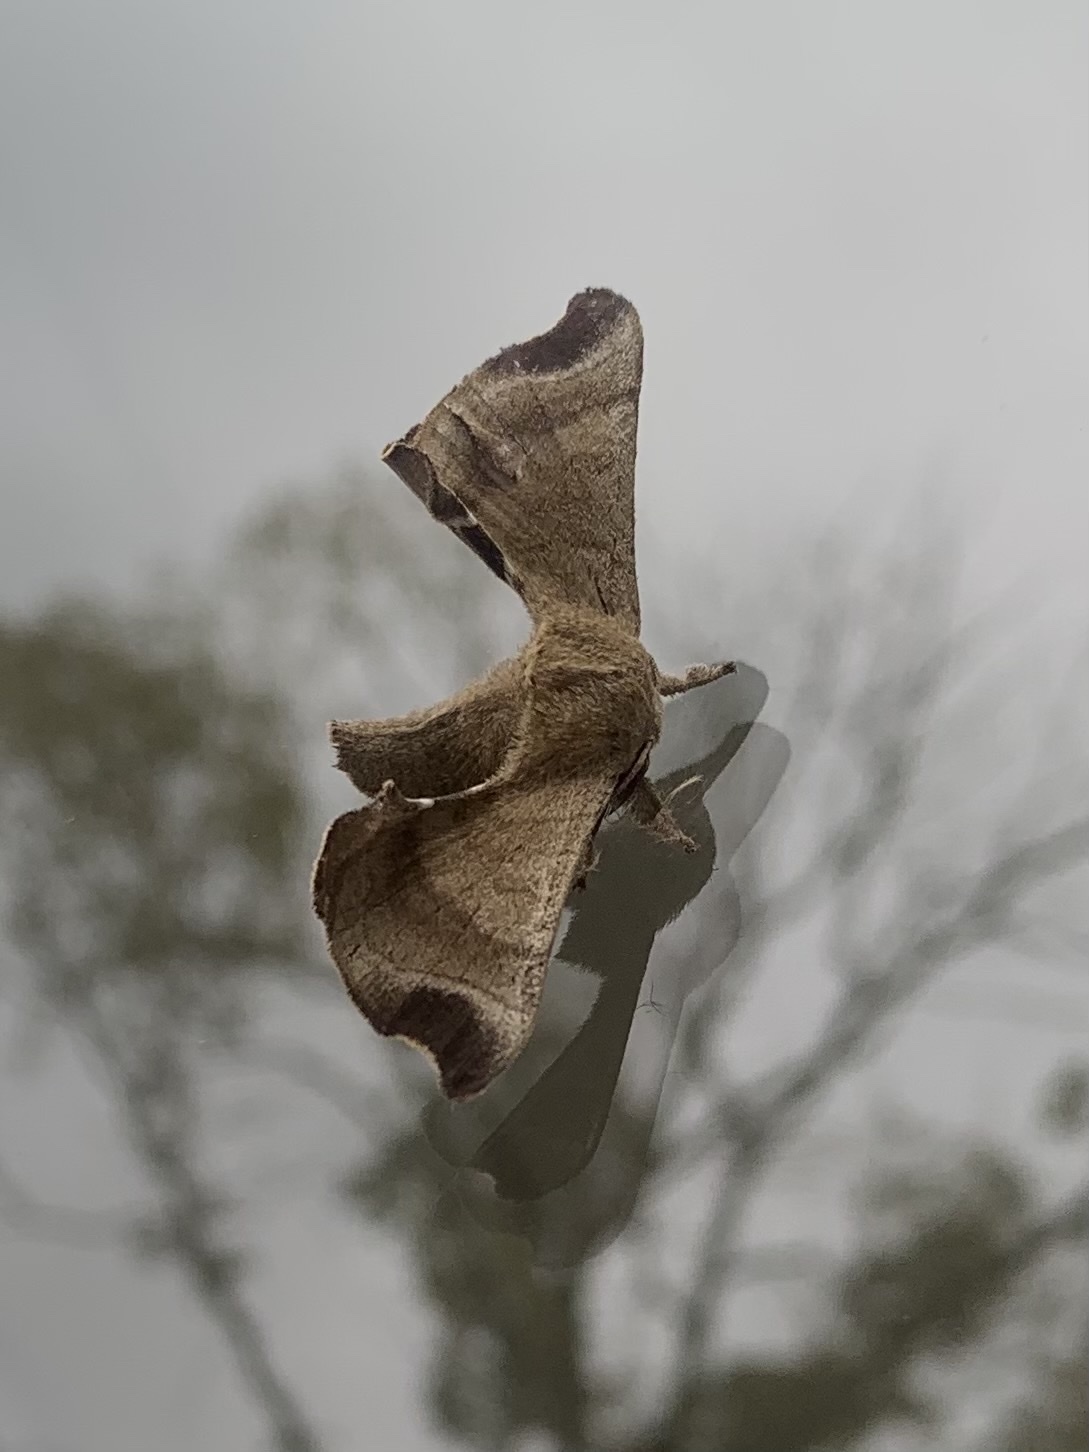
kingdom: Animalia
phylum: Arthropoda
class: Insecta
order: Lepidoptera
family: Bombycidae
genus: Bombyx
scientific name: Bombyx mandarina
